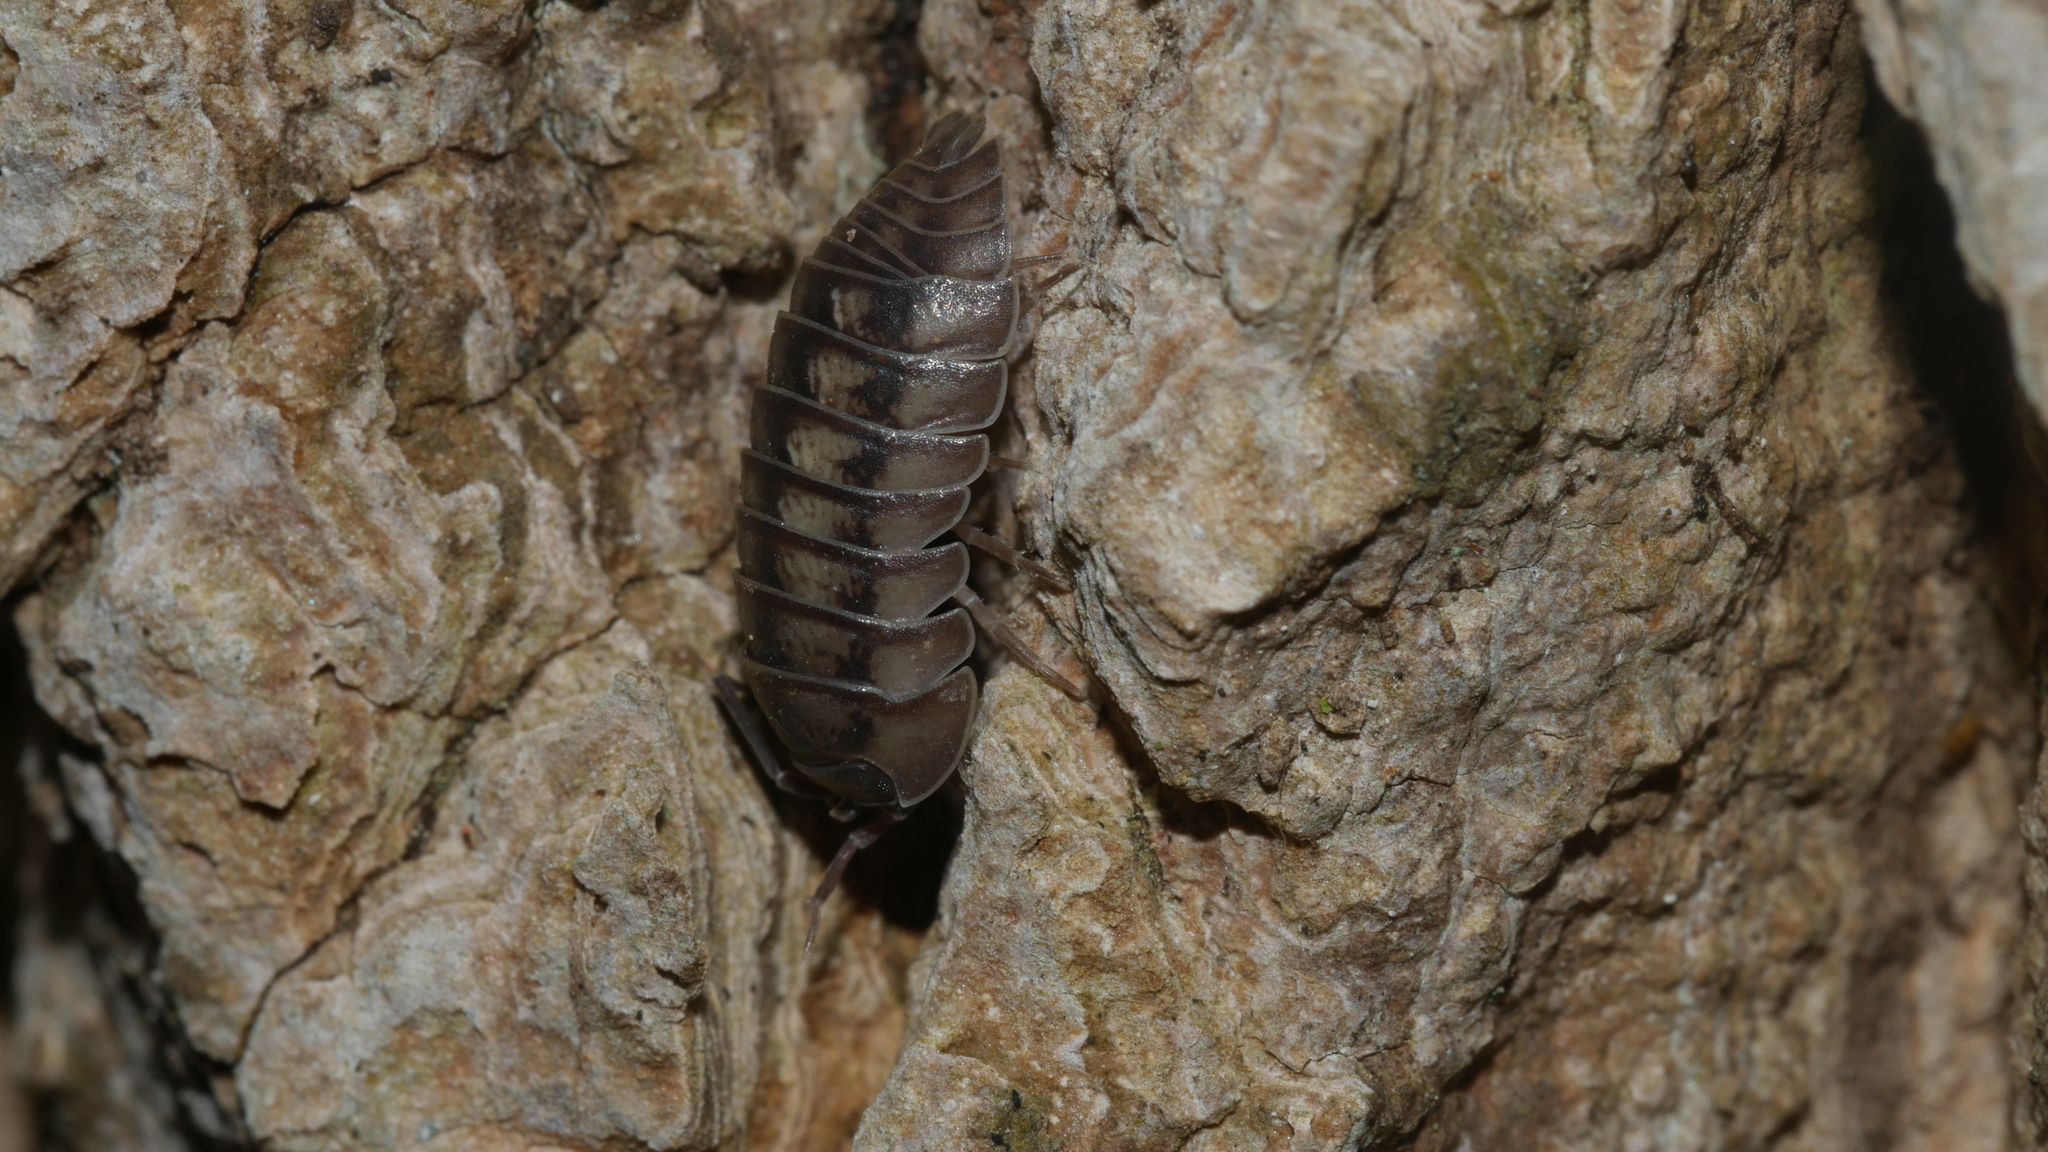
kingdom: Animalia
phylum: Arthropoda
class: Malacostraca
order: Isopoda
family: Armadillidiidae
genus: Armadillidium
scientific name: Armadillidium nasatum
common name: Isopod
